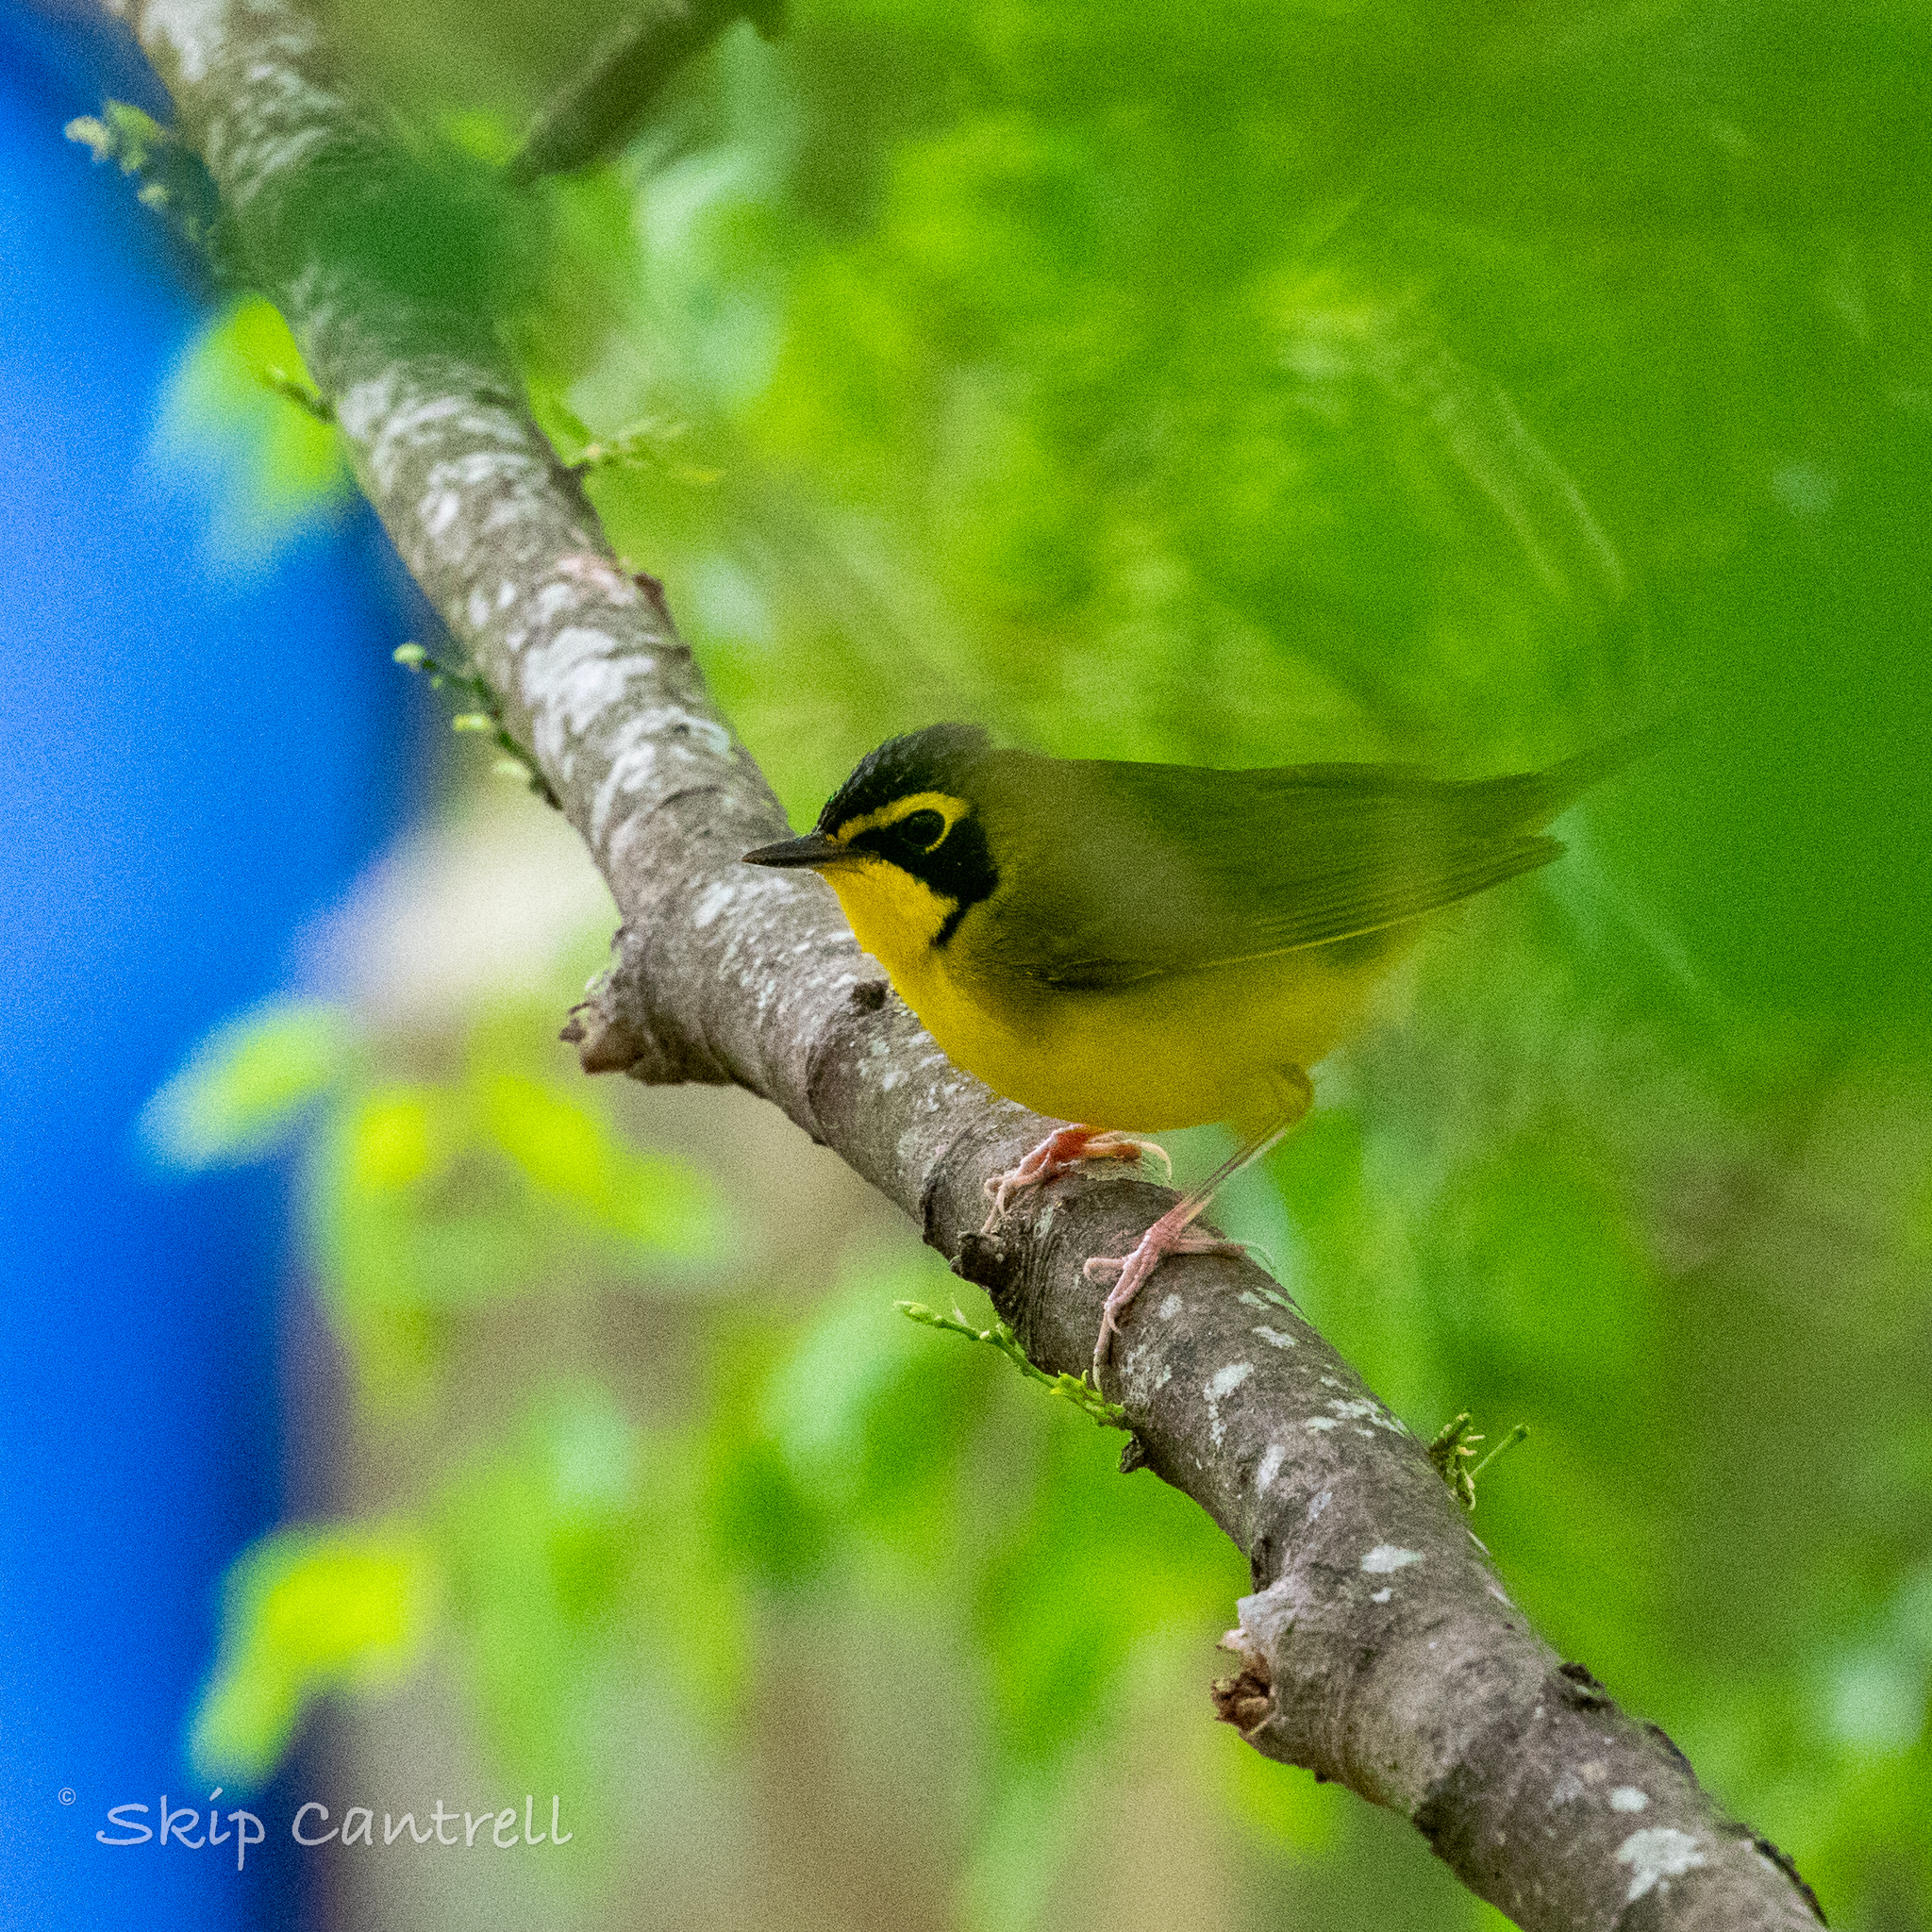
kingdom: Animalia
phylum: Chordata
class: Aves
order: Passeriformes
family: Parulidae
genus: Geothlypis
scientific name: Geothlypis formosa
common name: Kentucky warbler
